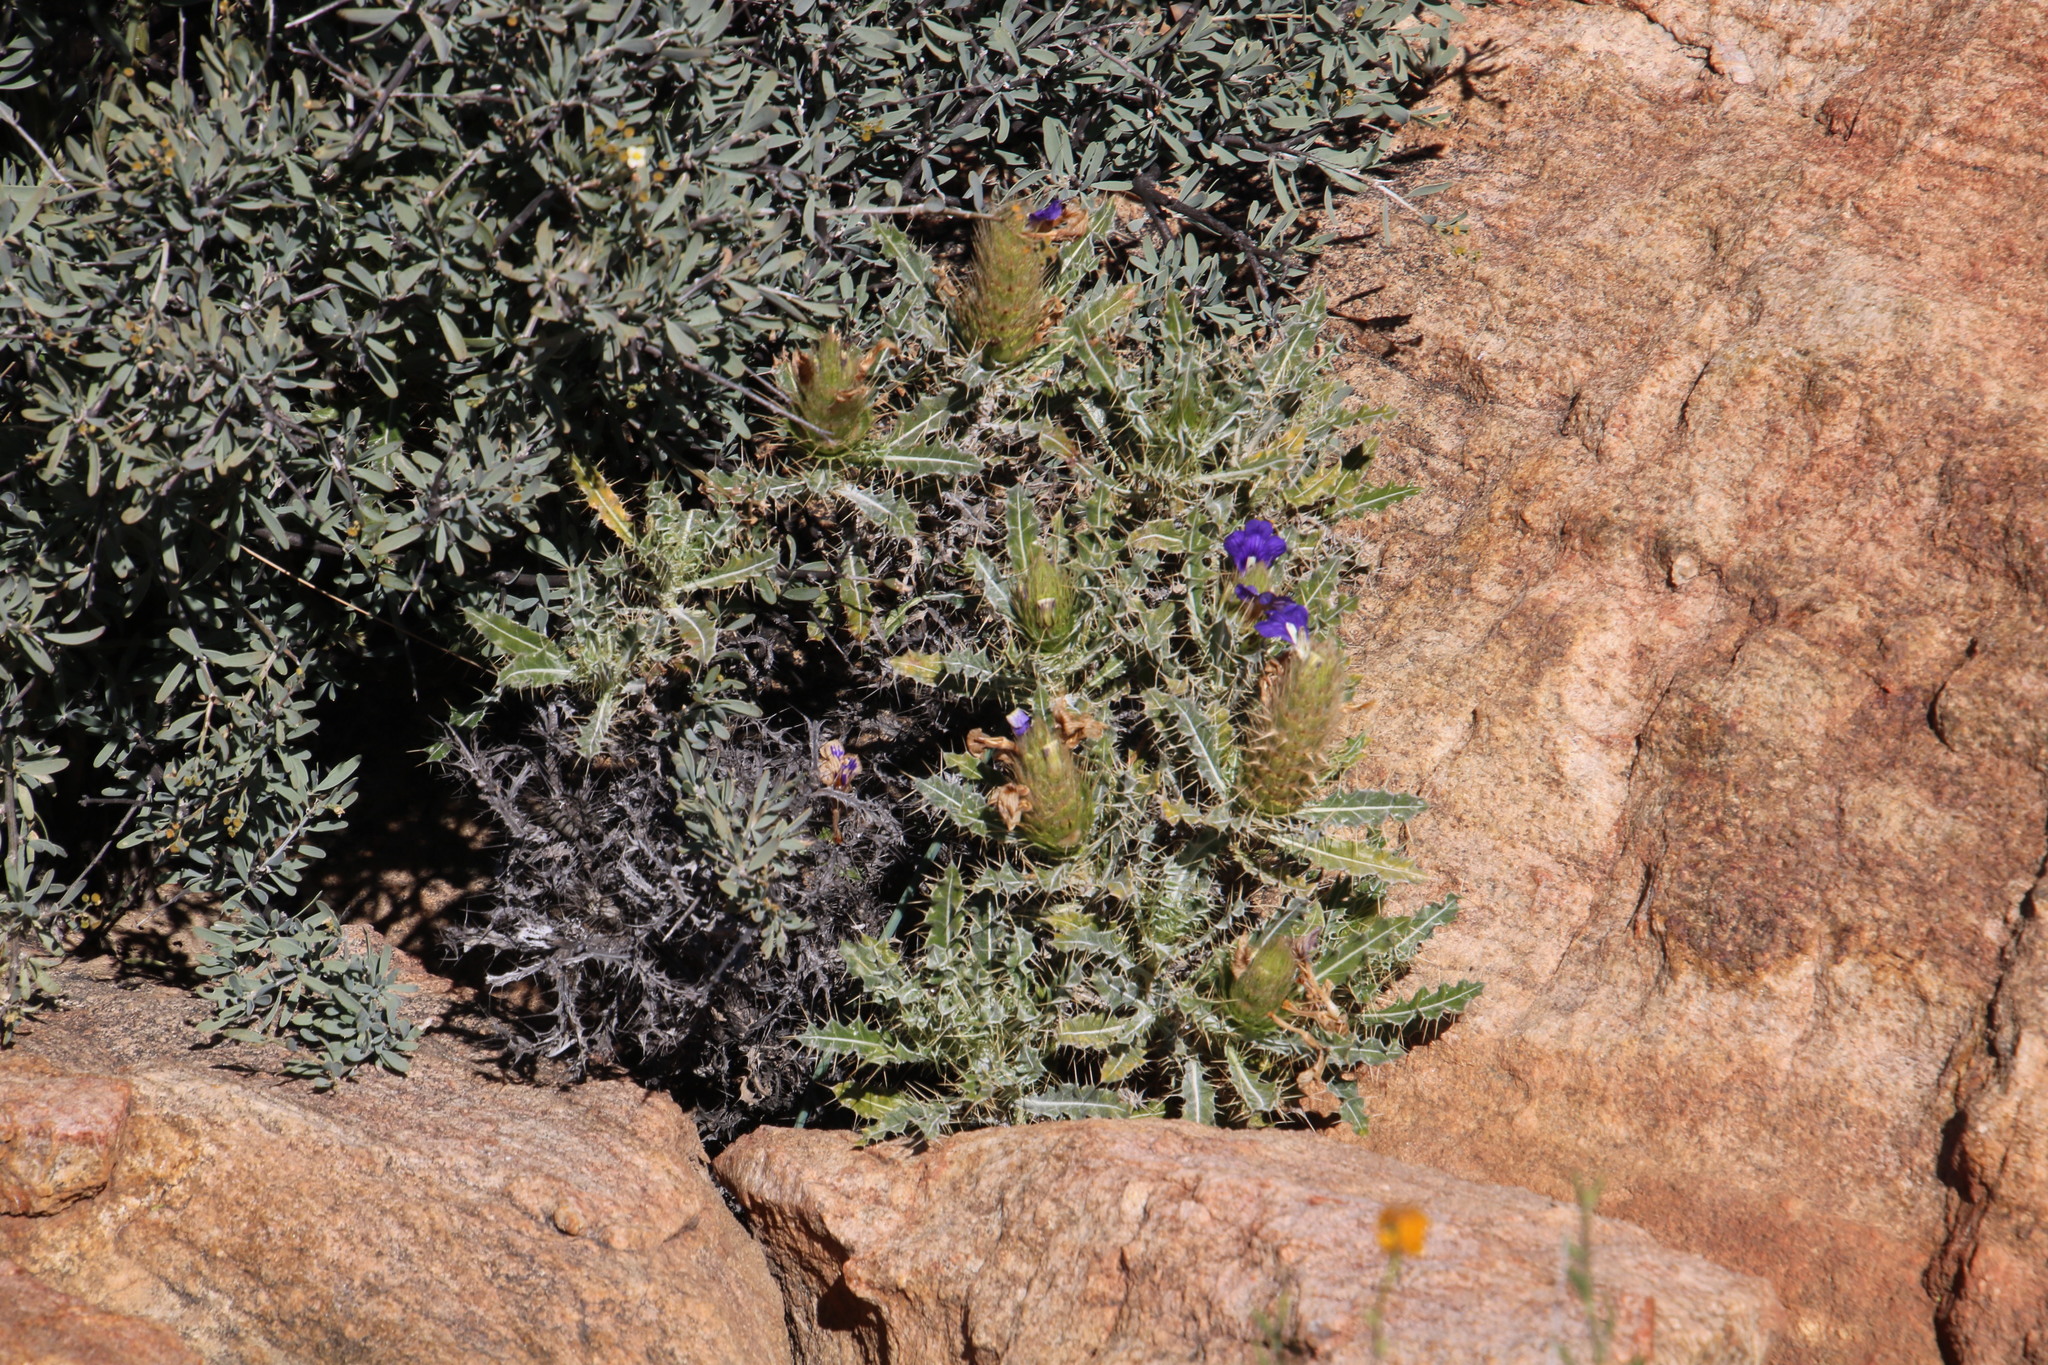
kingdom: Plantae
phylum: Tracheophyta
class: Magnoliopsida
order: Lamiales
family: Acanthaceae
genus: Acanthopsis
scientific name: Acanthopsis horrida
